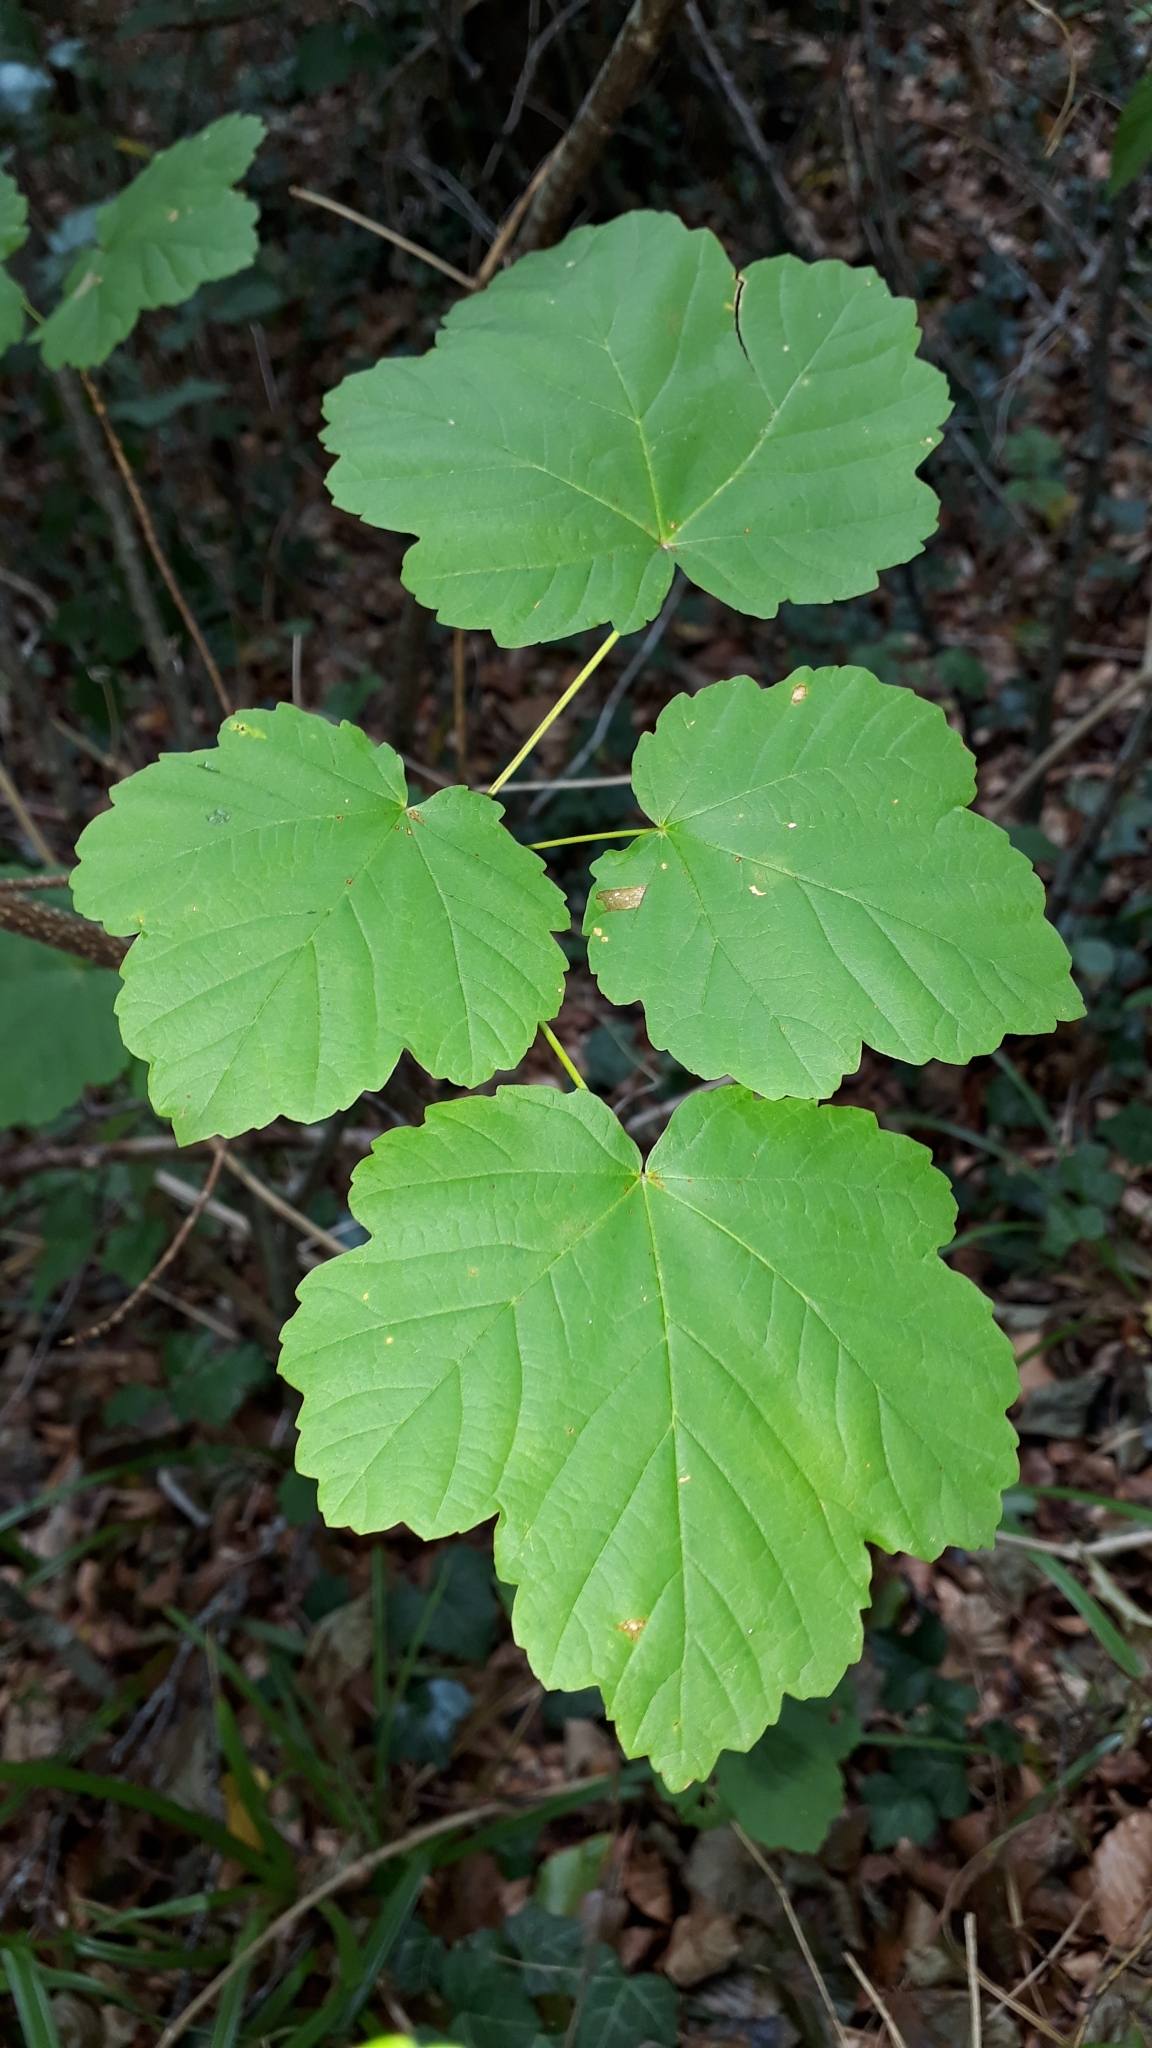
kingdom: Plantae
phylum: Tracheophyta
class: Magnoliopsida
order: Sapindales
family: Sapindaceae
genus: Acer
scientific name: Acer opalus
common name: Italian maple
